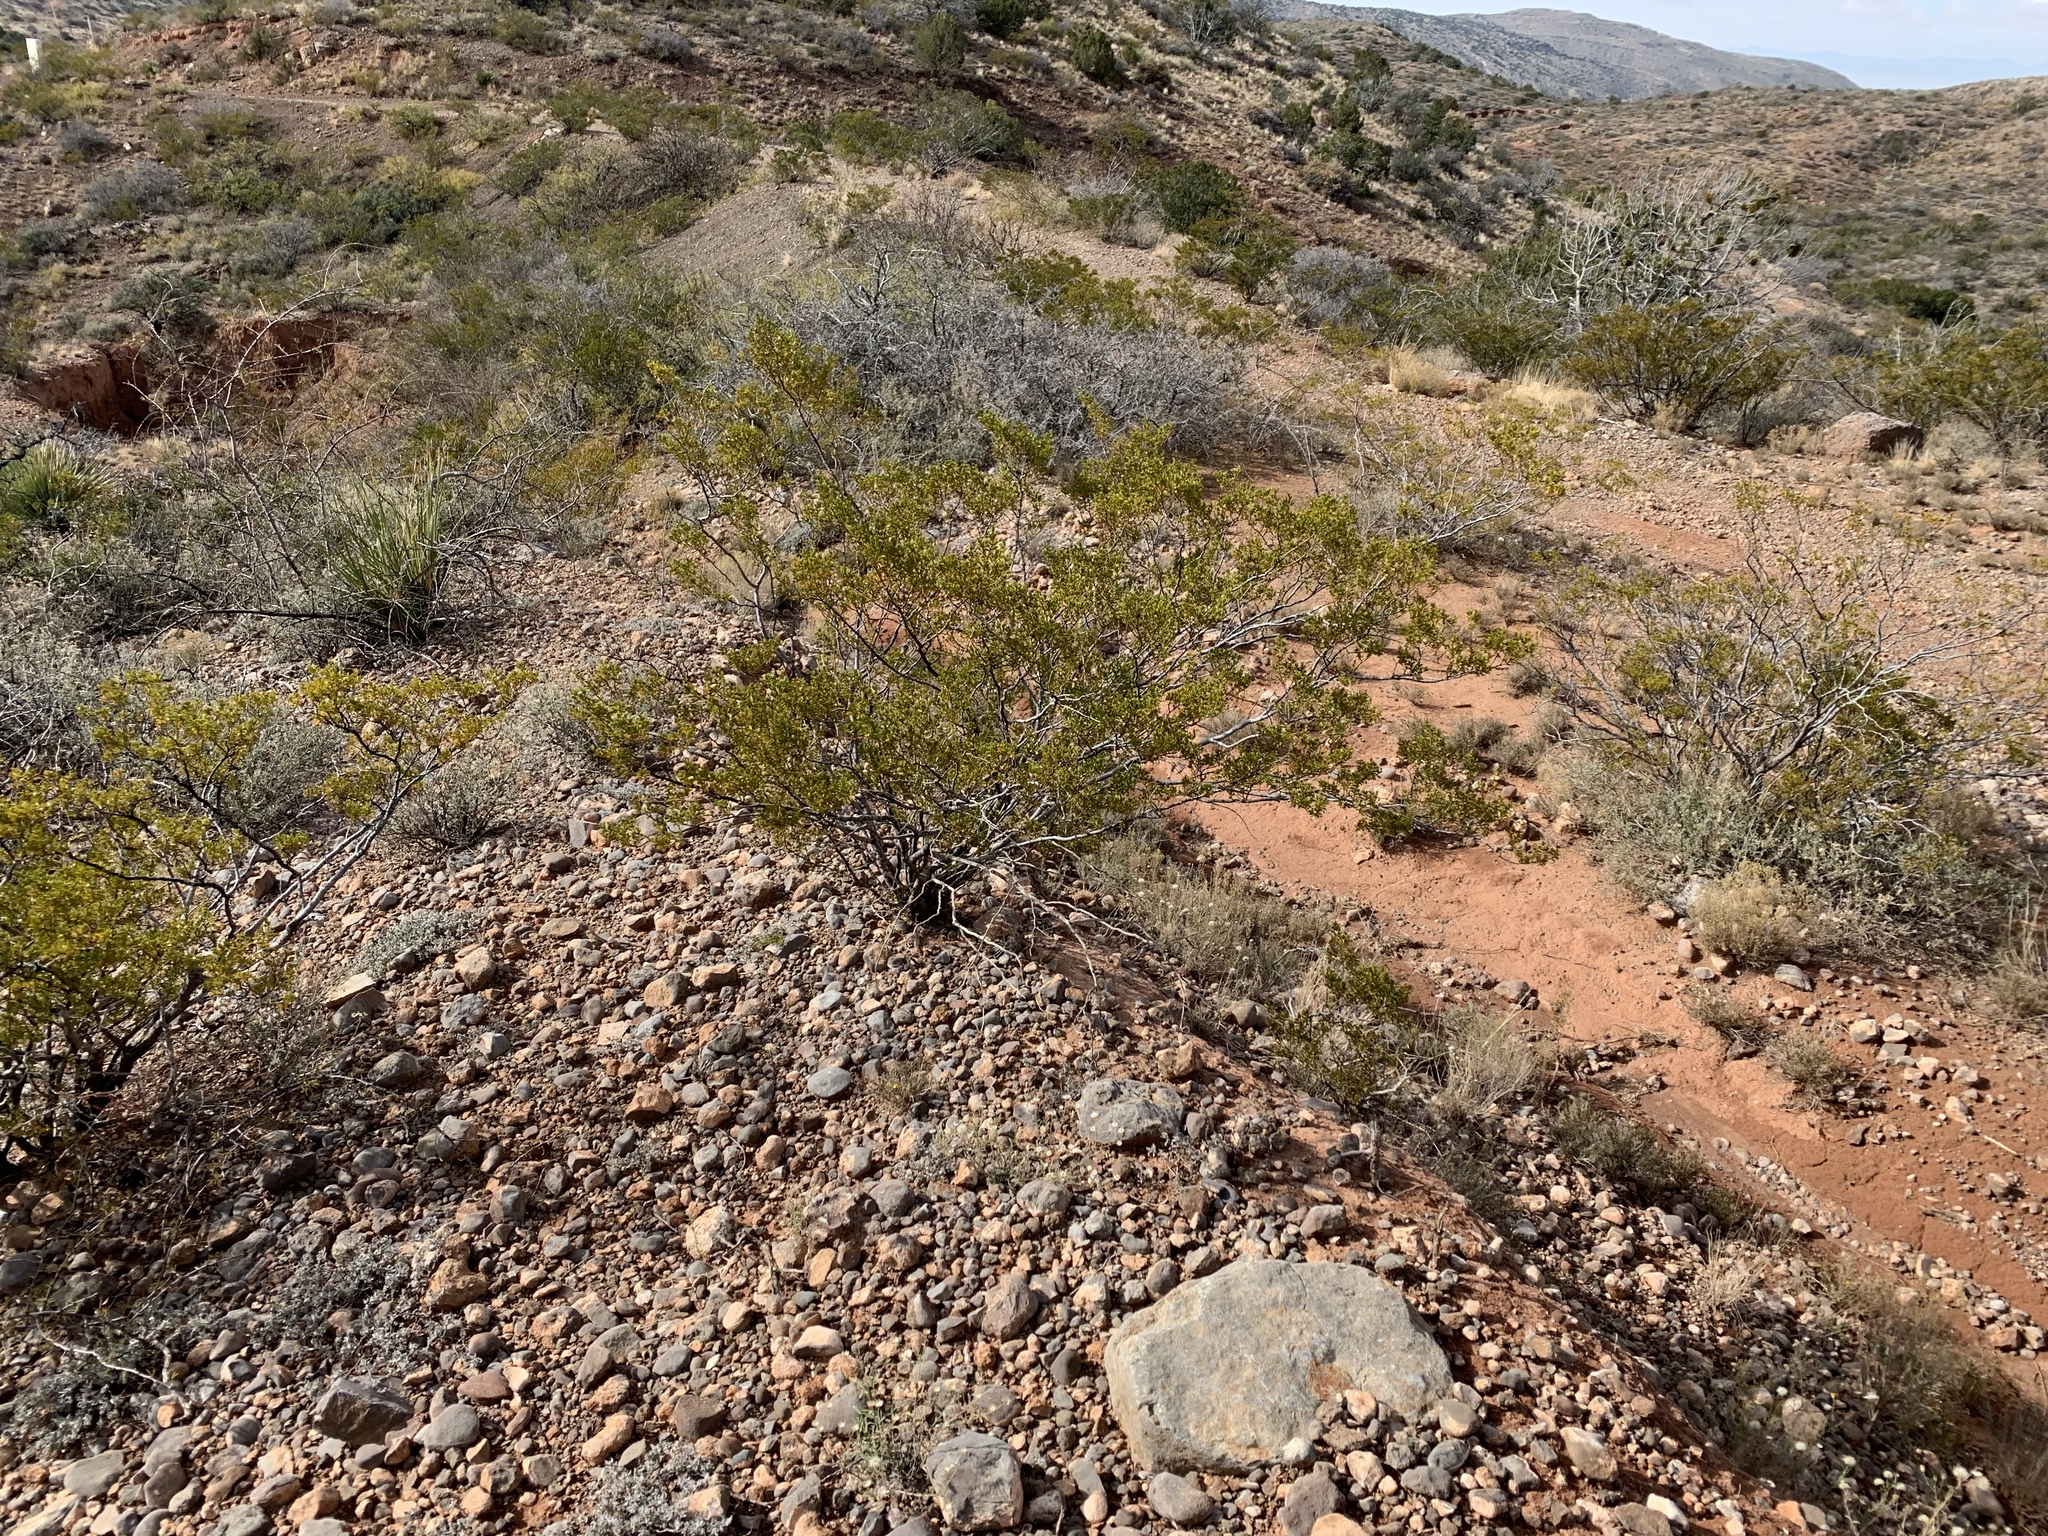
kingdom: Plantae
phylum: Tracheophyta
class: Magnoliopsida
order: Zygophyllales
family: Zygophyllaceae
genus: Larrea
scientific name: Larrea tridentata
